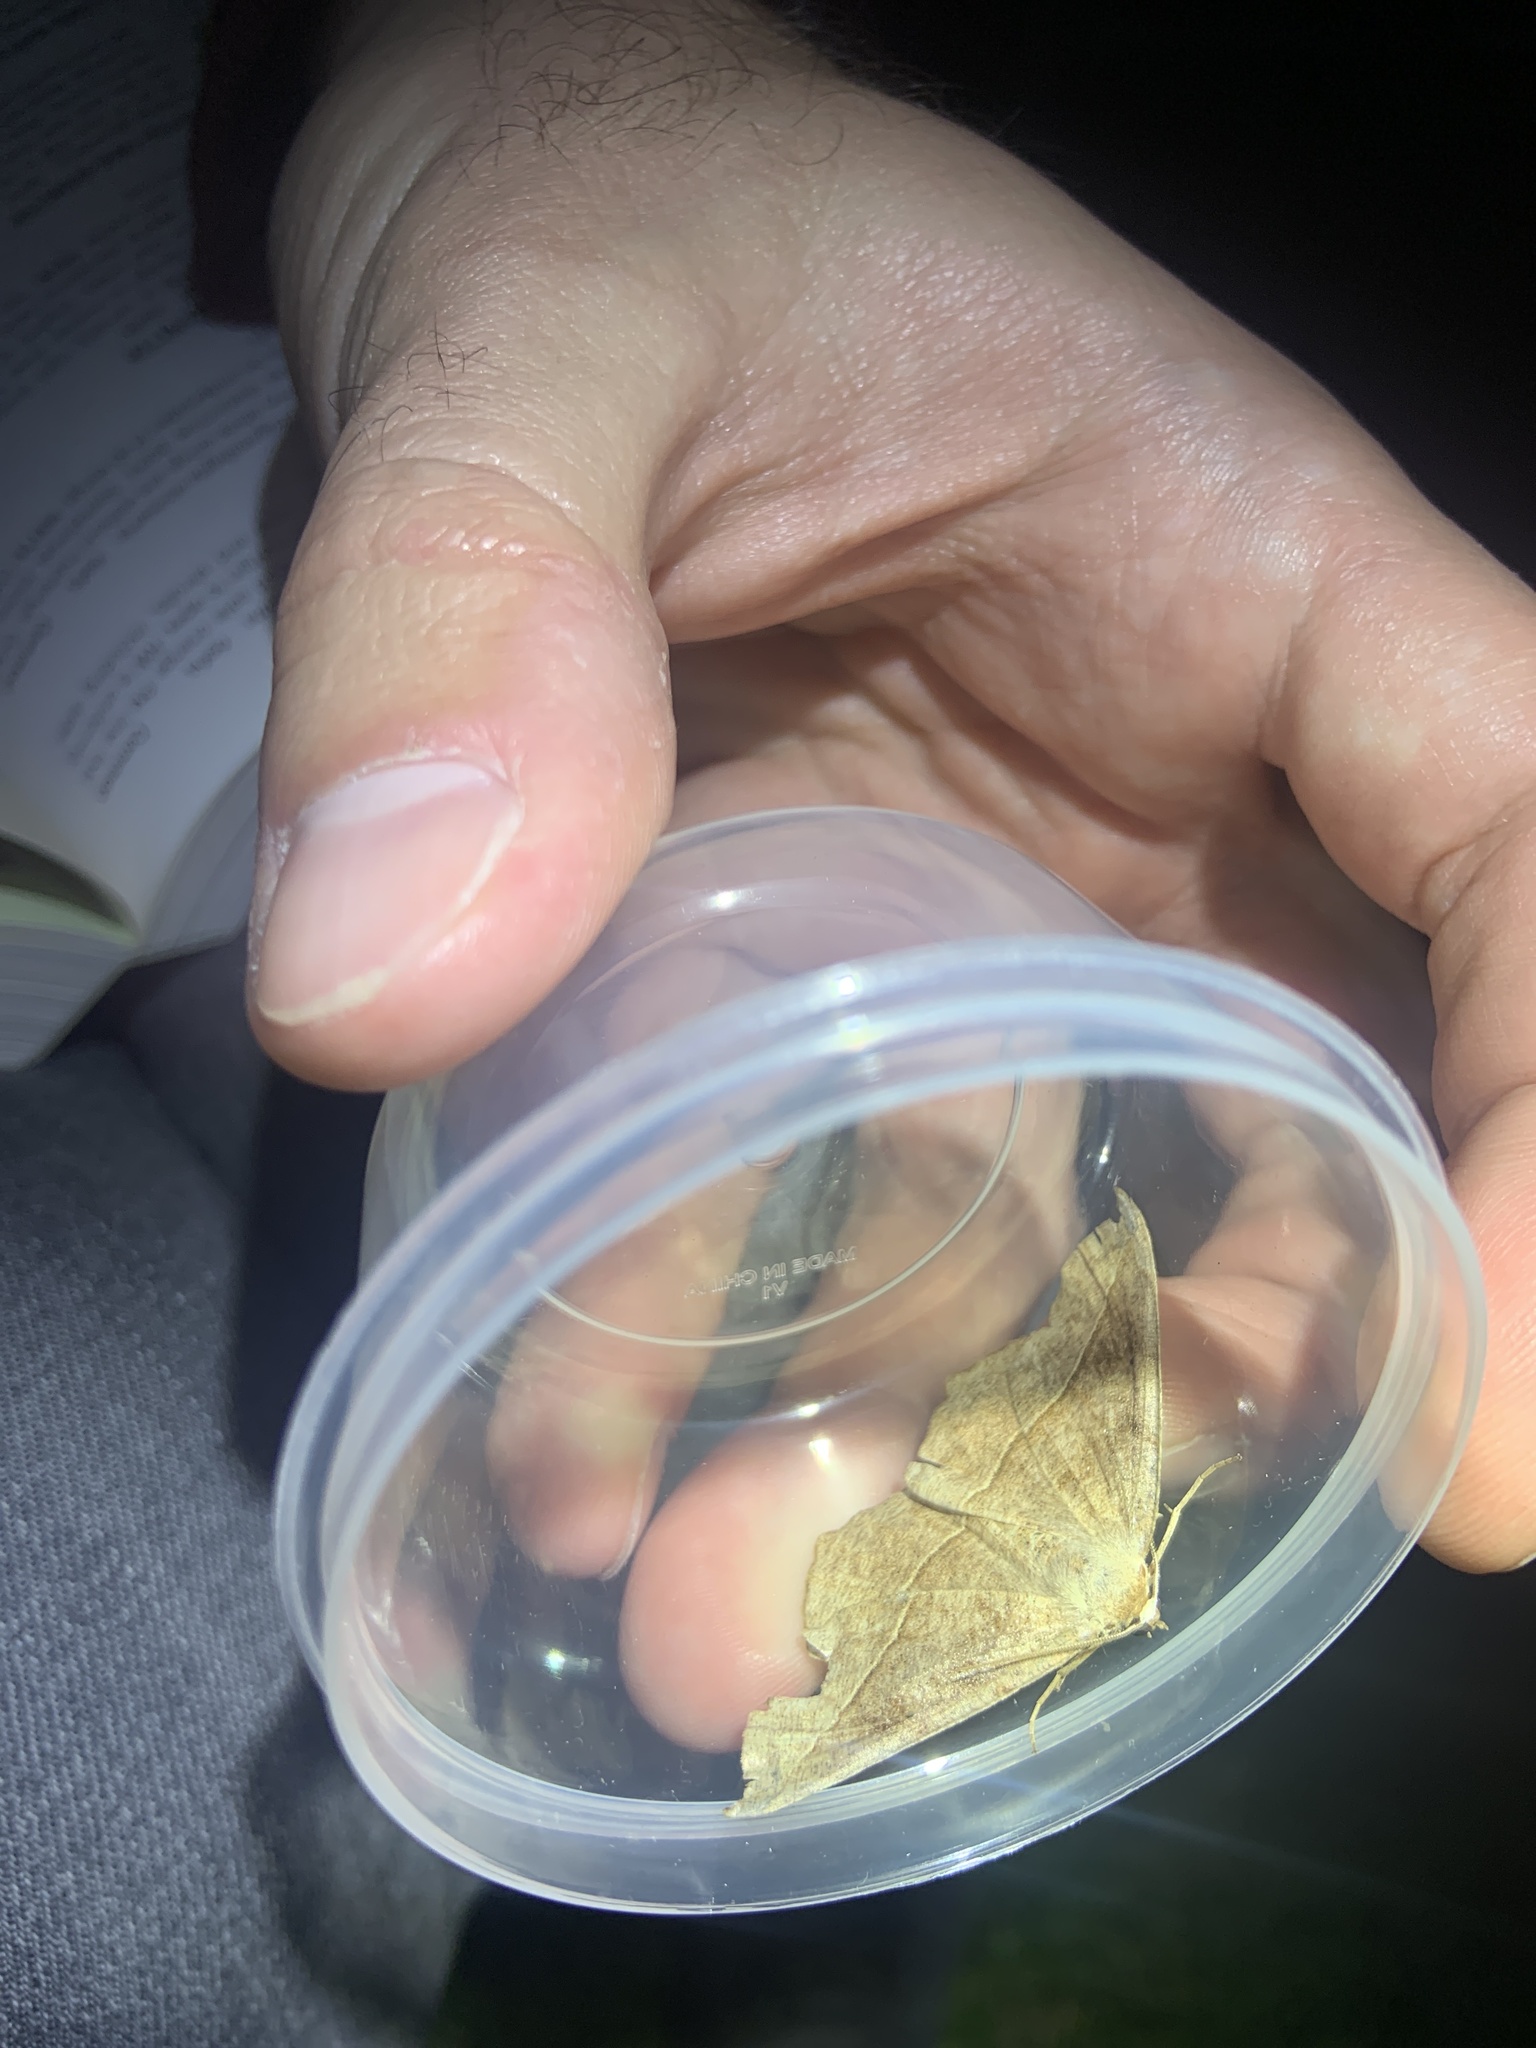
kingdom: Animalia
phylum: Arthropoda
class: Insecta
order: Lepidoptera
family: Geometridae
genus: Eutrapela
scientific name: Eutrapela clemataria
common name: Curved-toothed geometer
